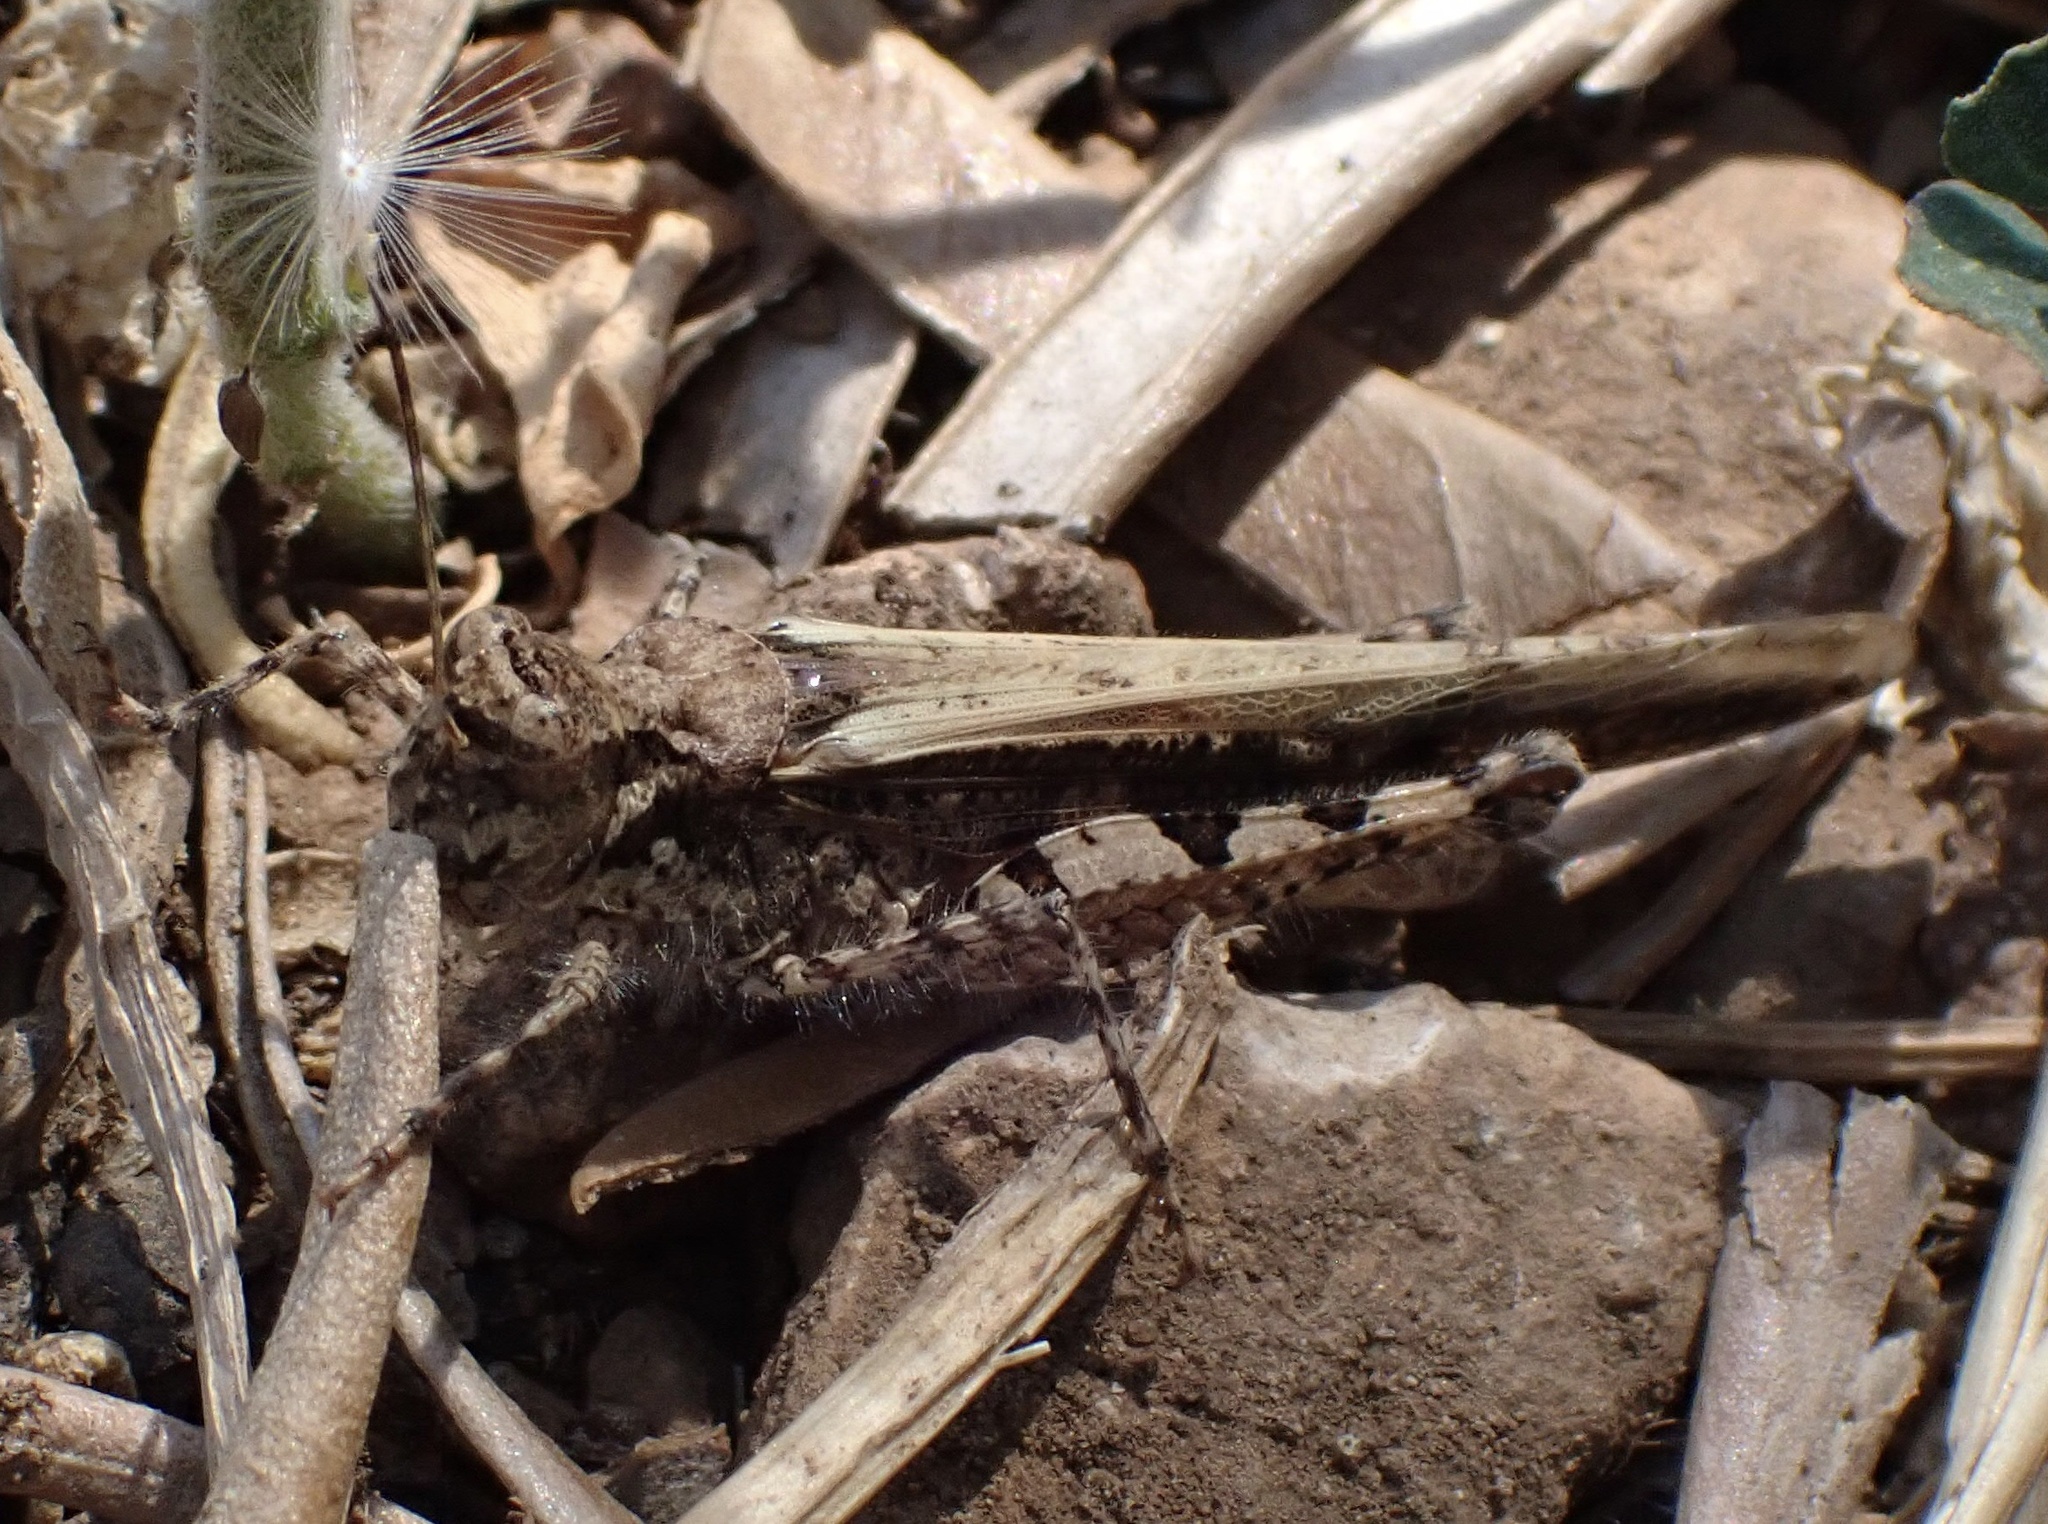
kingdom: Animalia
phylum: Arthropoda
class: Insecta
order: Orthoptera
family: Acrididae
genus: Acrotylus
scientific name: Acrotylus patruelis
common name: Slender burrowing grasshopper
